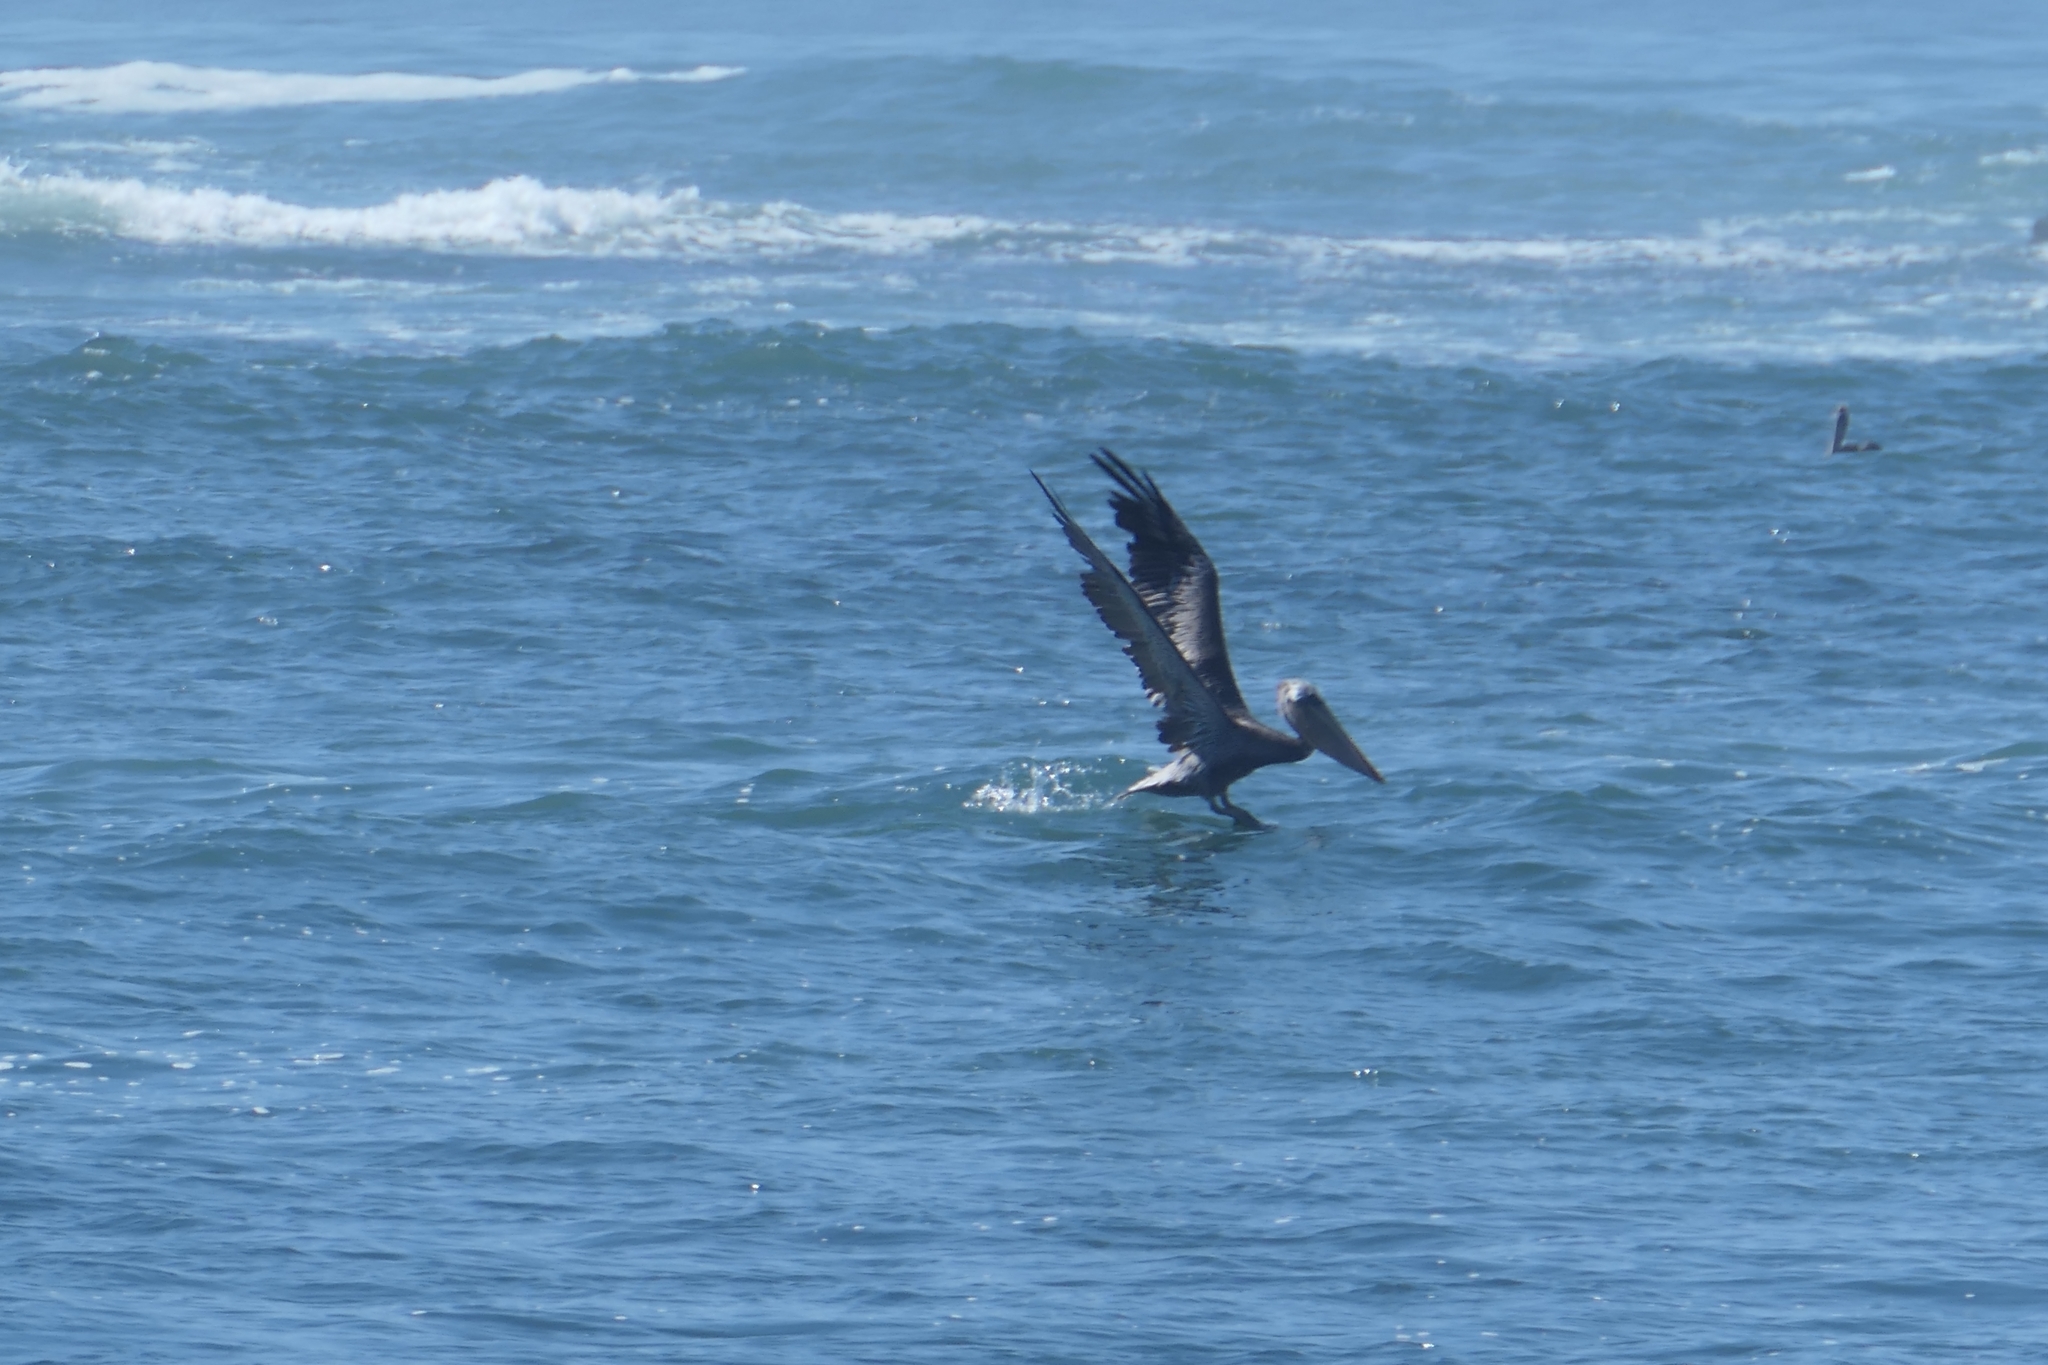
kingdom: Animalia
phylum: Chordata
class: Aves
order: Pelecaniformes
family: Pelecanidae
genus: Pelecanus
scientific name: Pelecanus occidentalis
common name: Brown pelican
